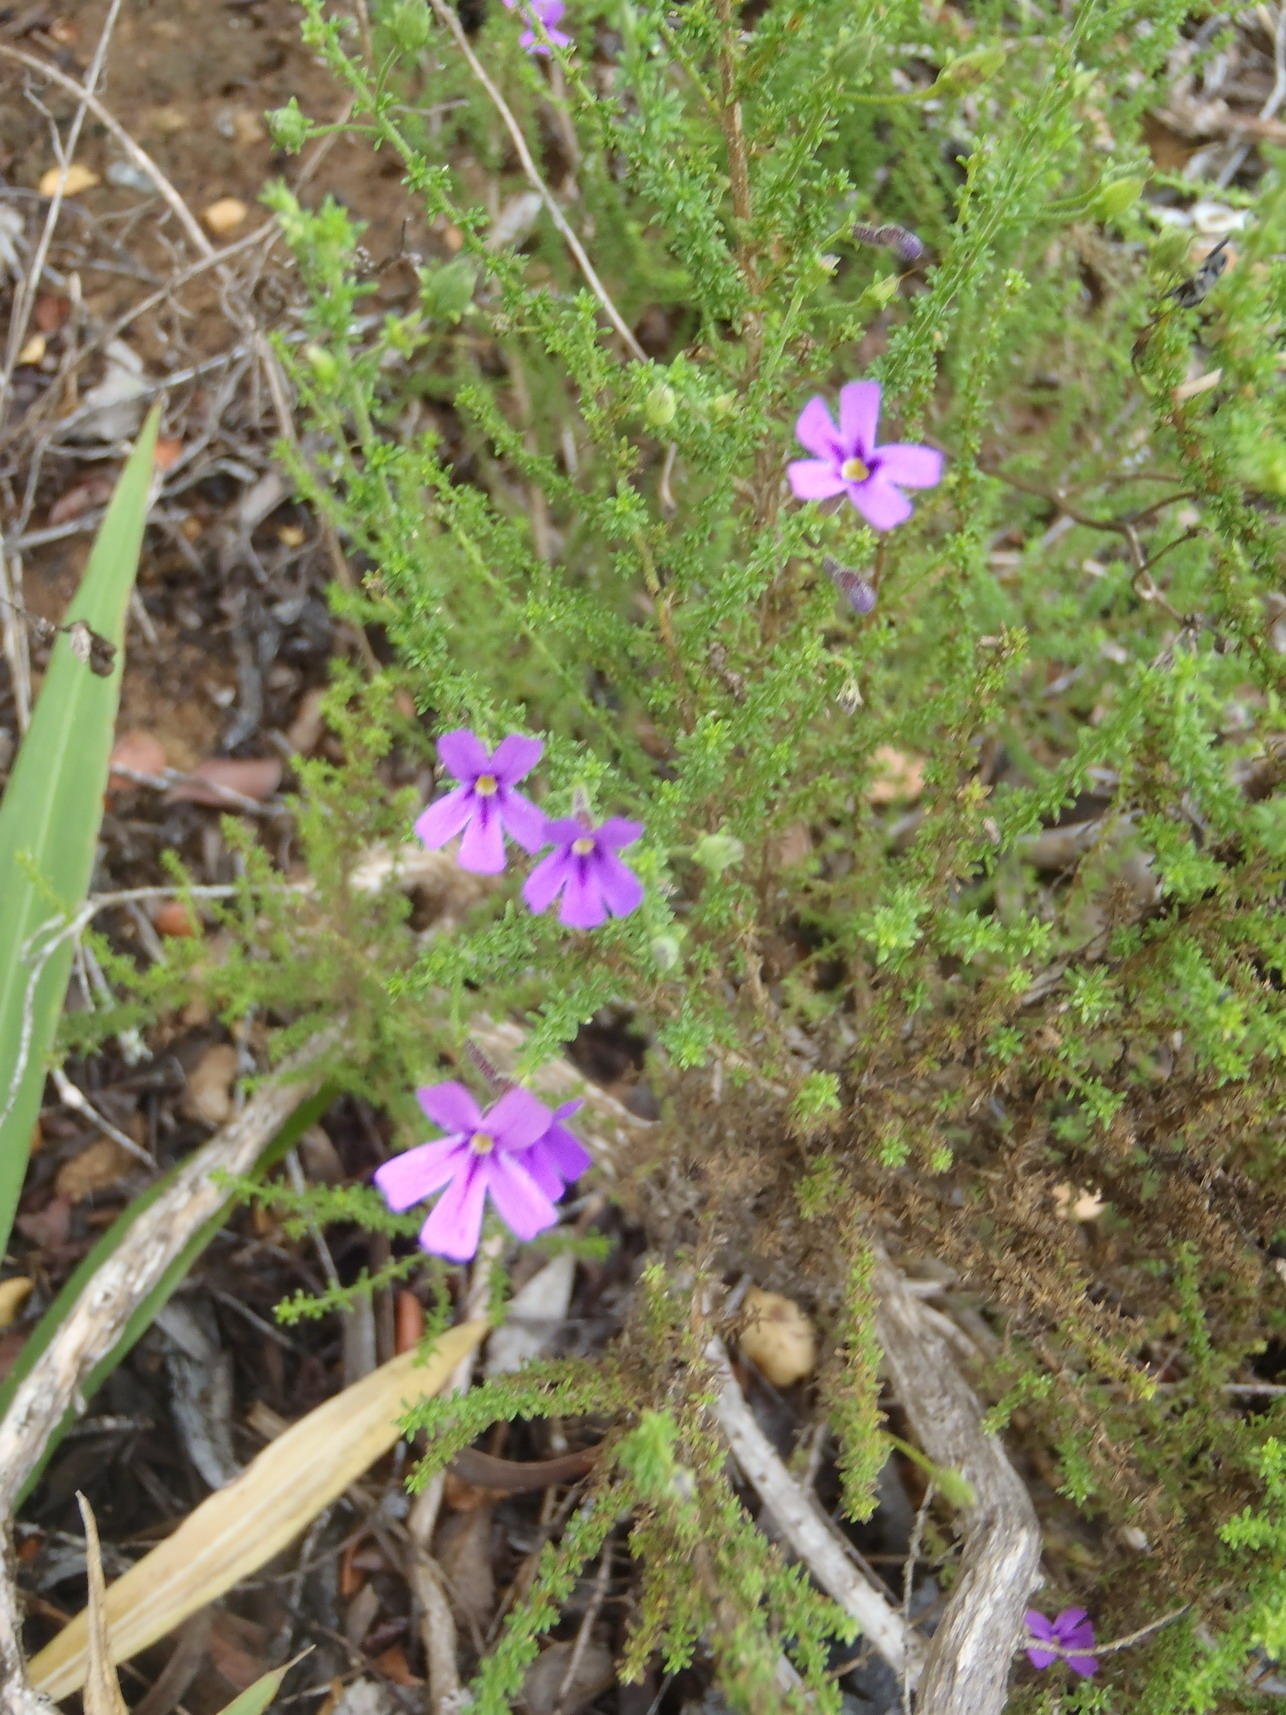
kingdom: Plantae
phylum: Tracheophyta
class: Magnoliopsida
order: Lamiales
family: Scrophulariaceae
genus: Jamesbrittenia
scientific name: Jamesbrittenia microphylla
